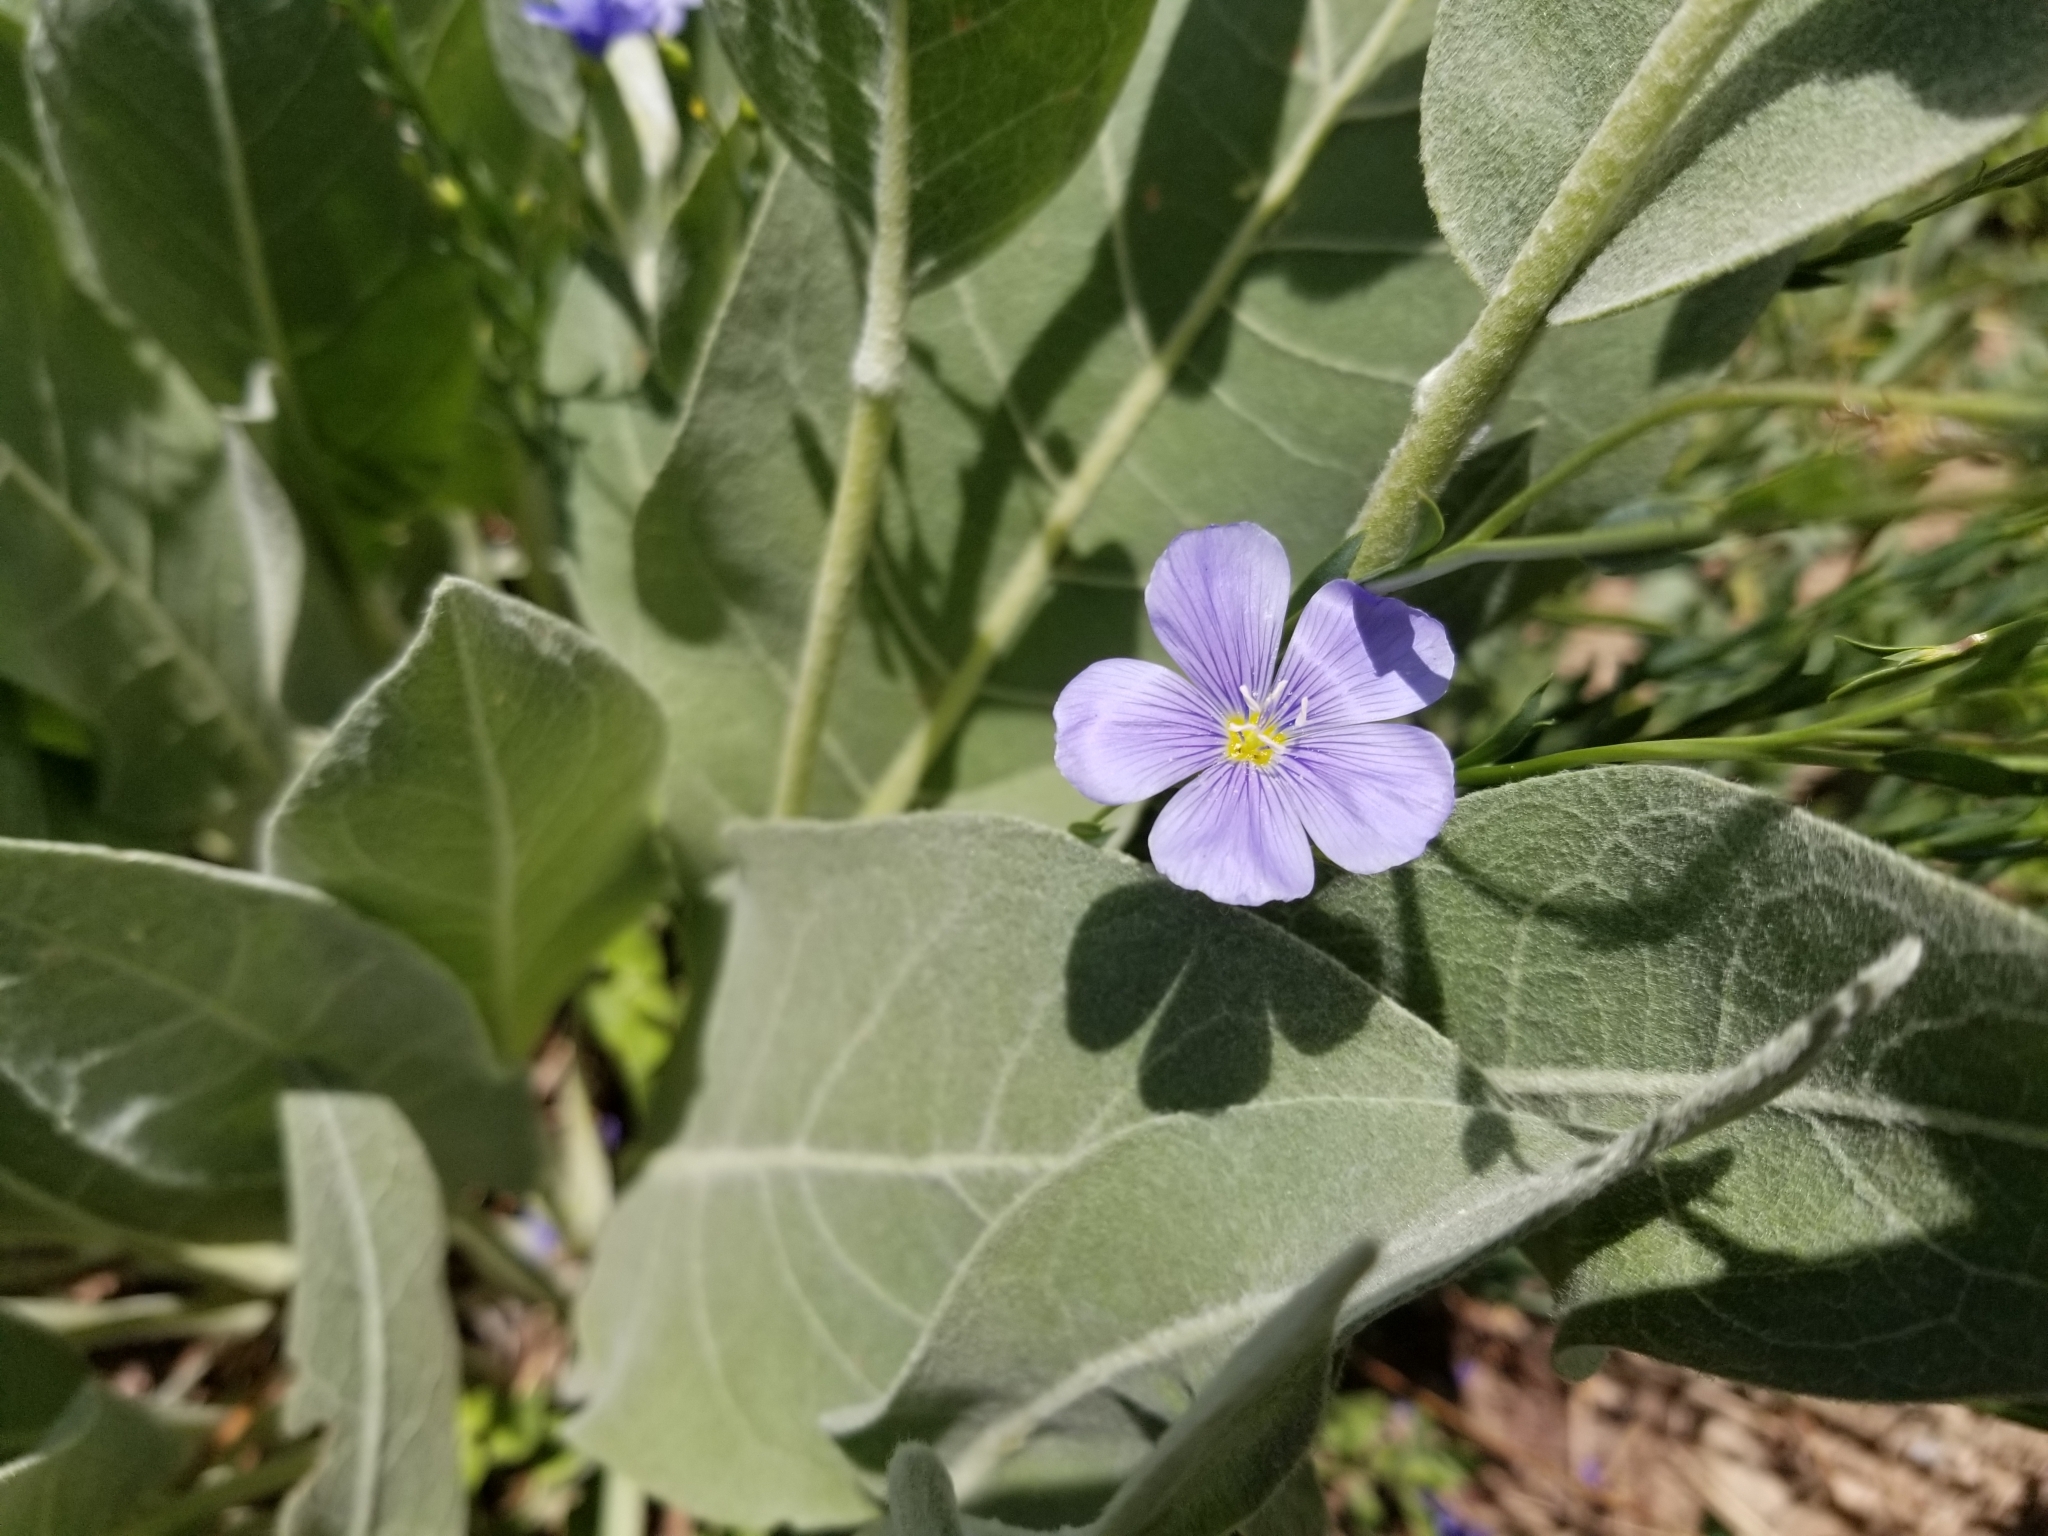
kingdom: Plantae
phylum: Tracheophyta
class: Magnoliopsida
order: Malpighiales
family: Linaceae
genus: Linum
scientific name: Linum lewisii
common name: Prairie flax
